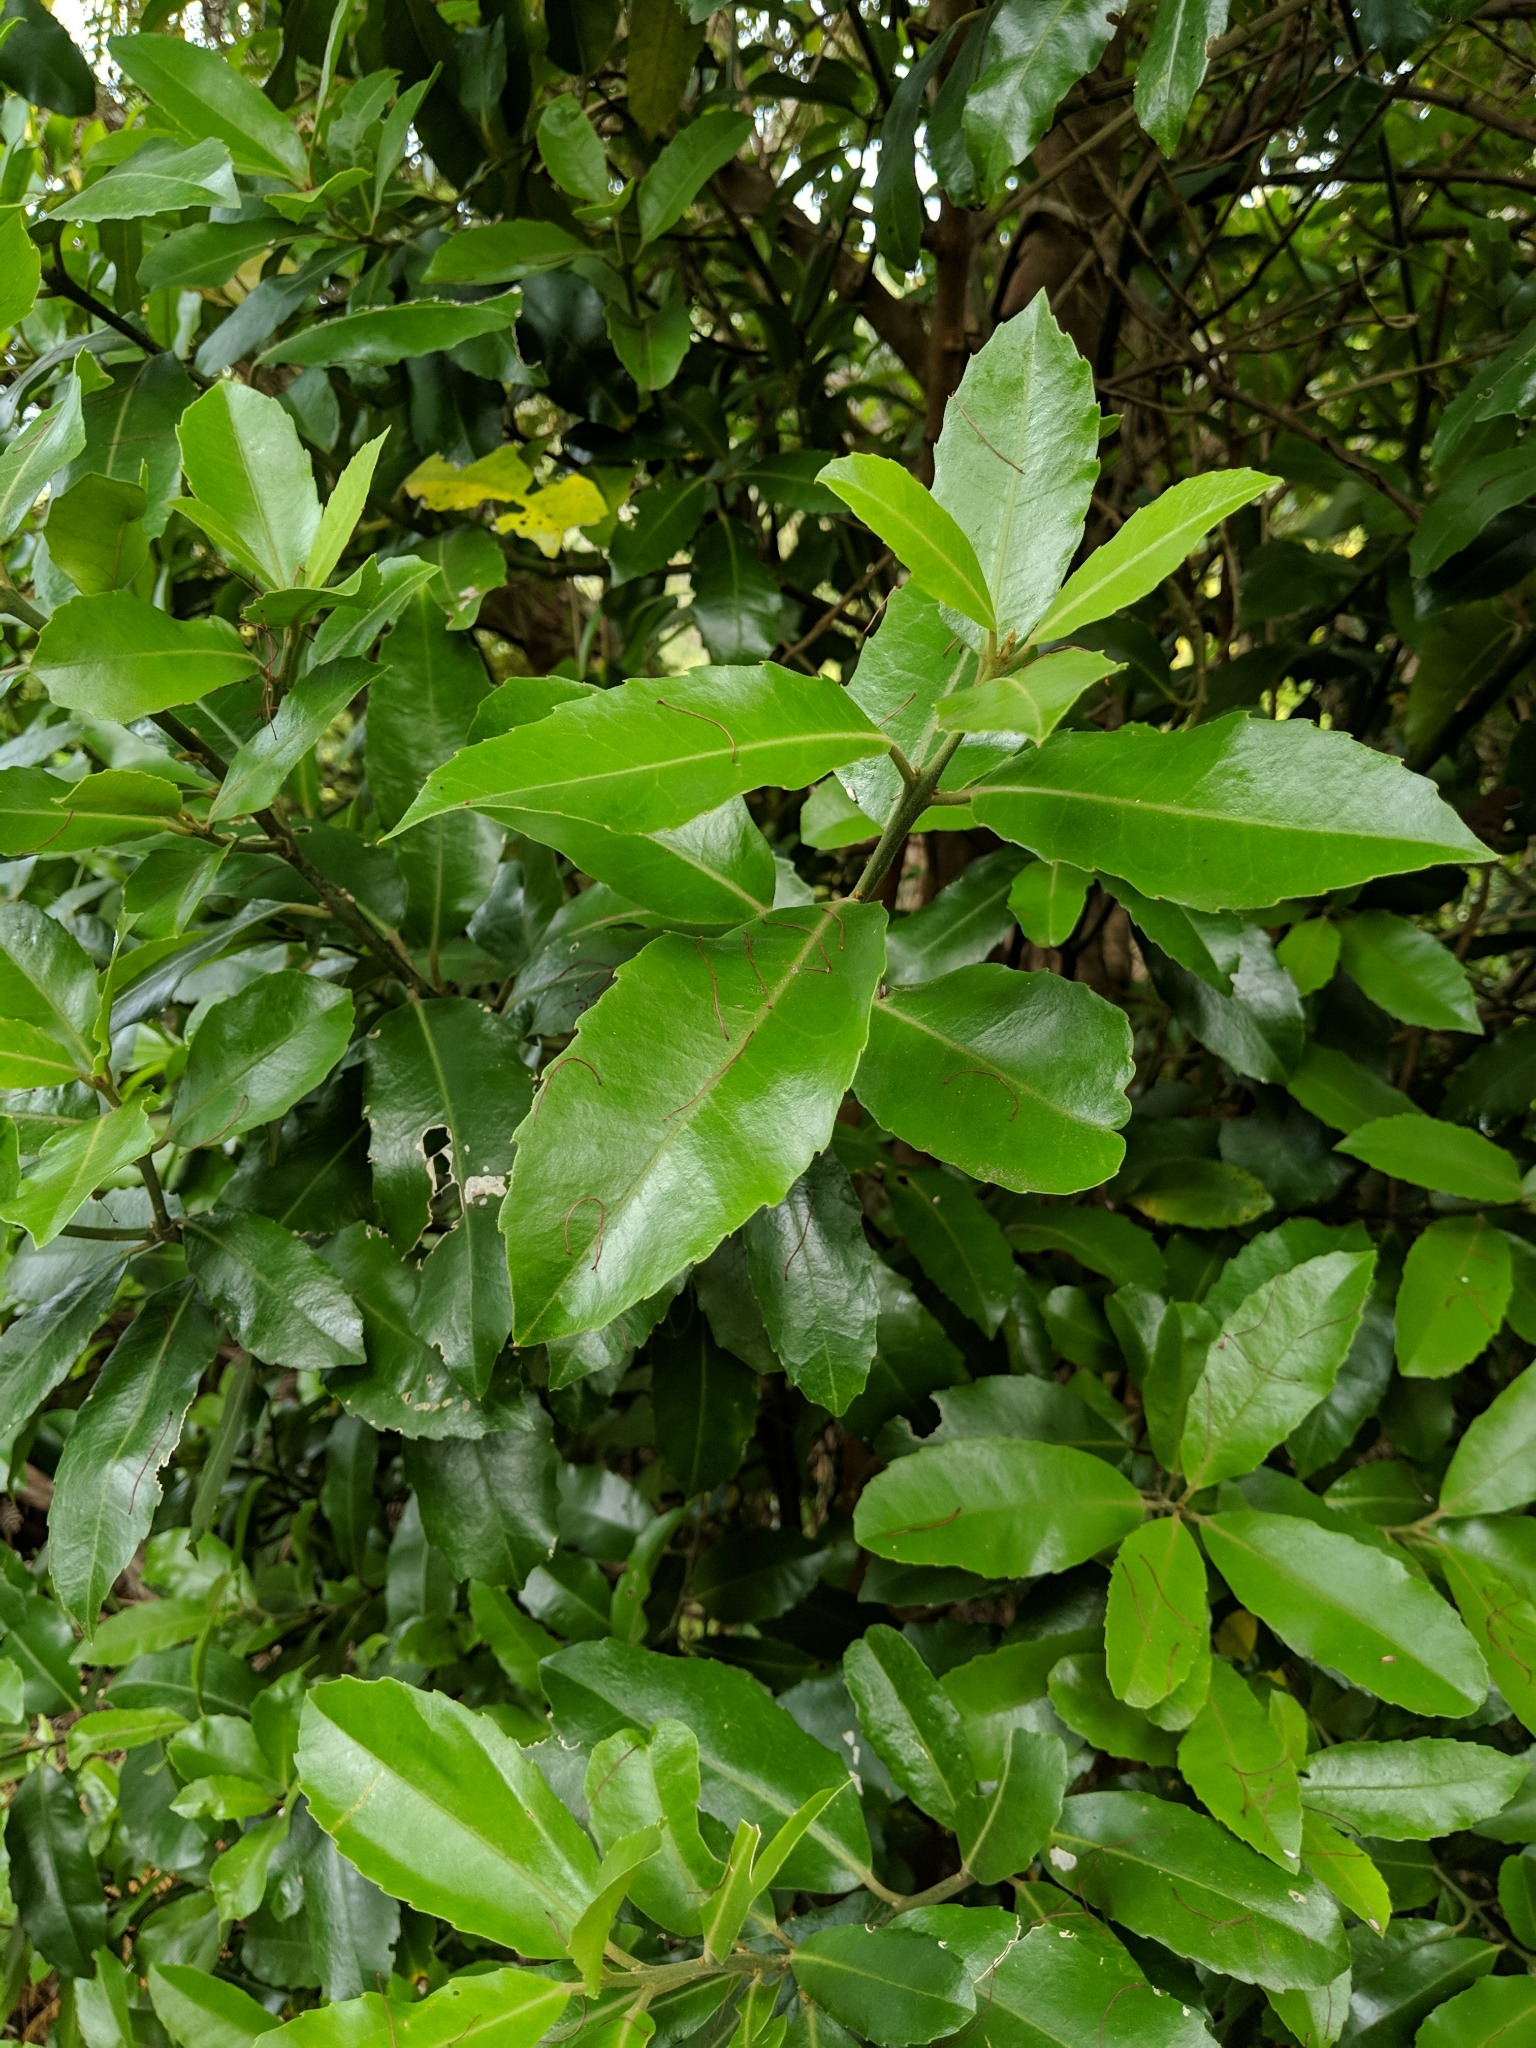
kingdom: Plantae
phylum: Tracheophyta
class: Magnoliopsida
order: Laurales
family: Monimiaceae
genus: Hedycarya
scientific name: Hedycarya arborea
